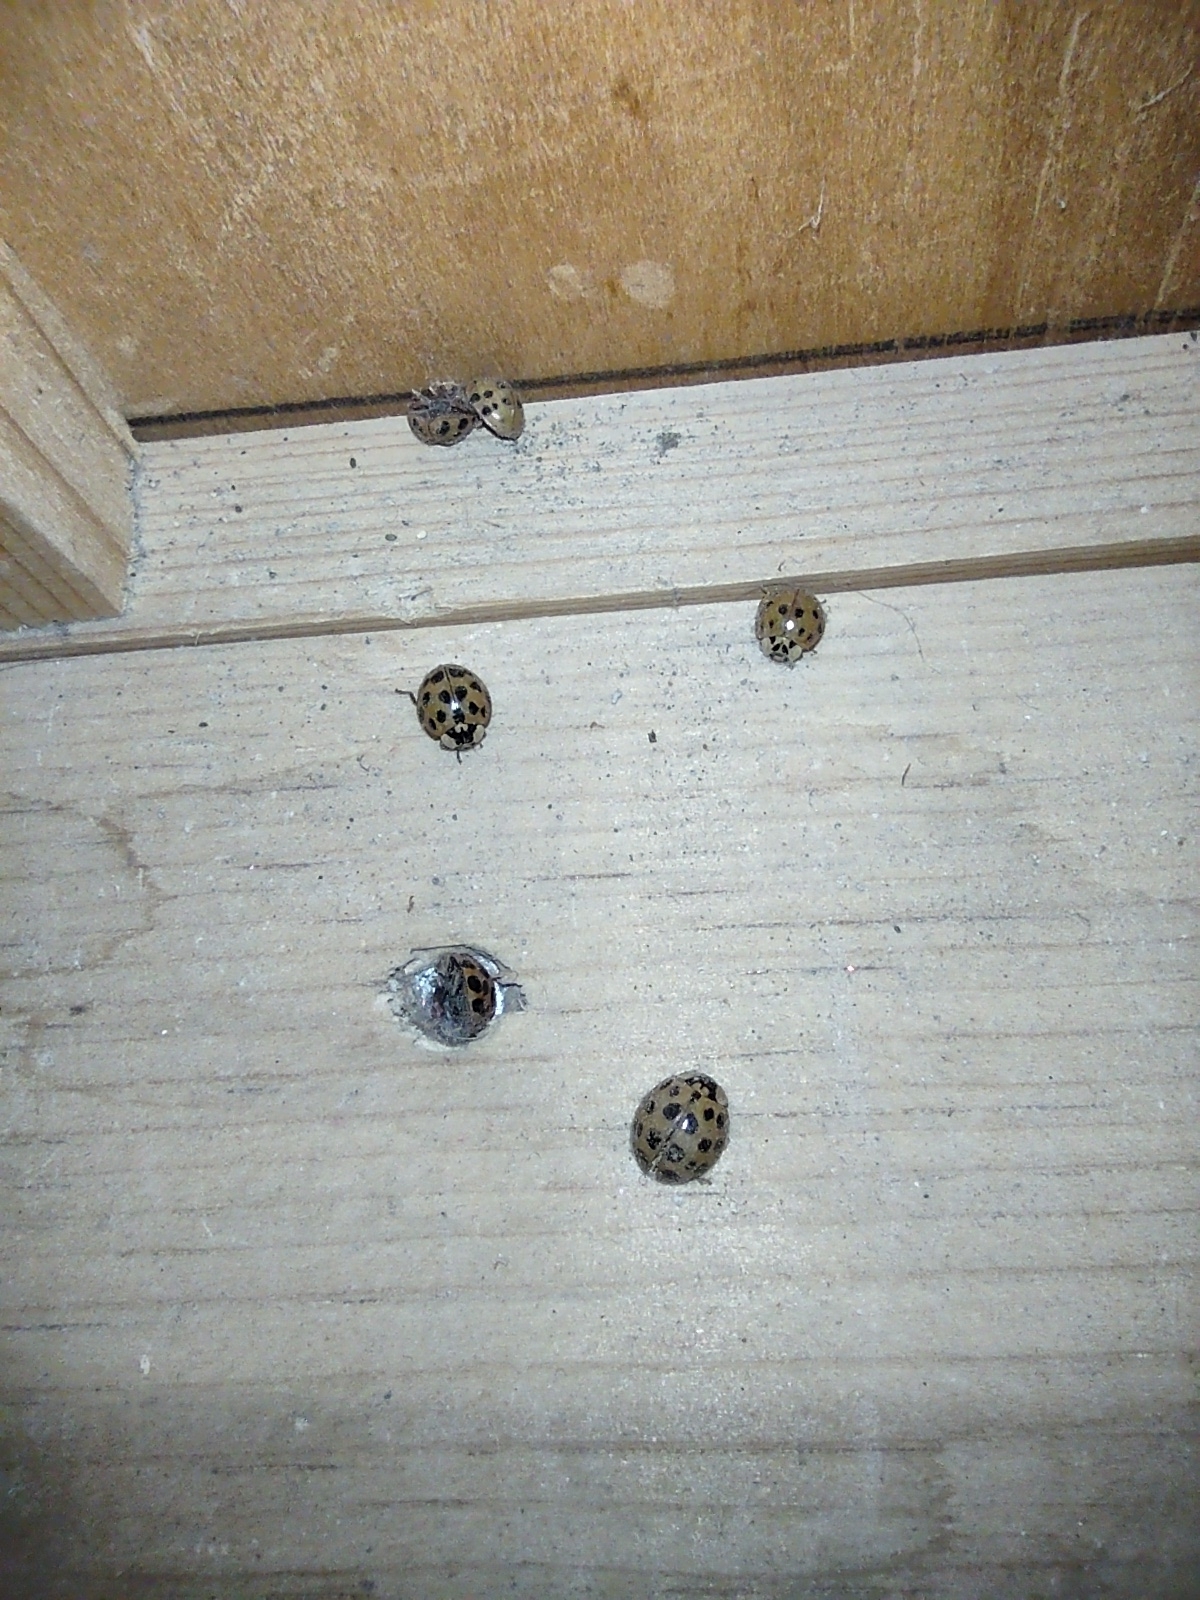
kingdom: Animalia
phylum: Arthropoda
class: Insecta
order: Coleoptera
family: Coccinellidae
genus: Harmonia
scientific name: Harmonia axyridis
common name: Harlequin ladybird
